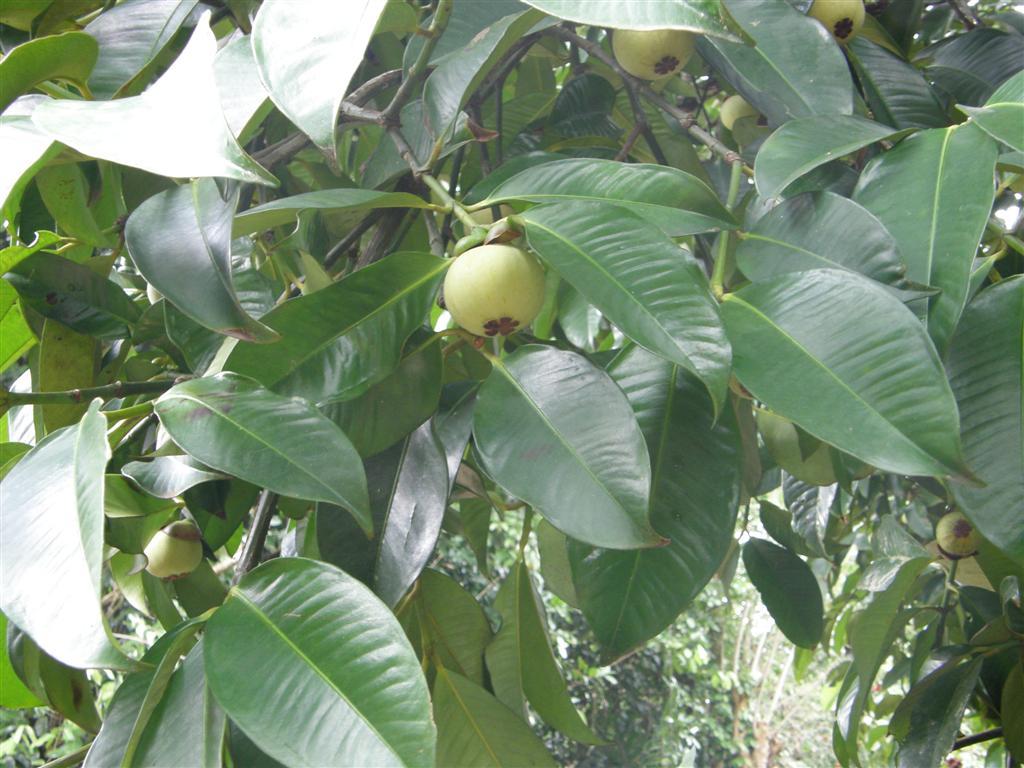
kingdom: Plantae
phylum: Tracheophyta
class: Magnoliopsida
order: Malpighiales
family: Clusiaceae
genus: Garcinia
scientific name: Garcinia mangostana
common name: Mangosteen
